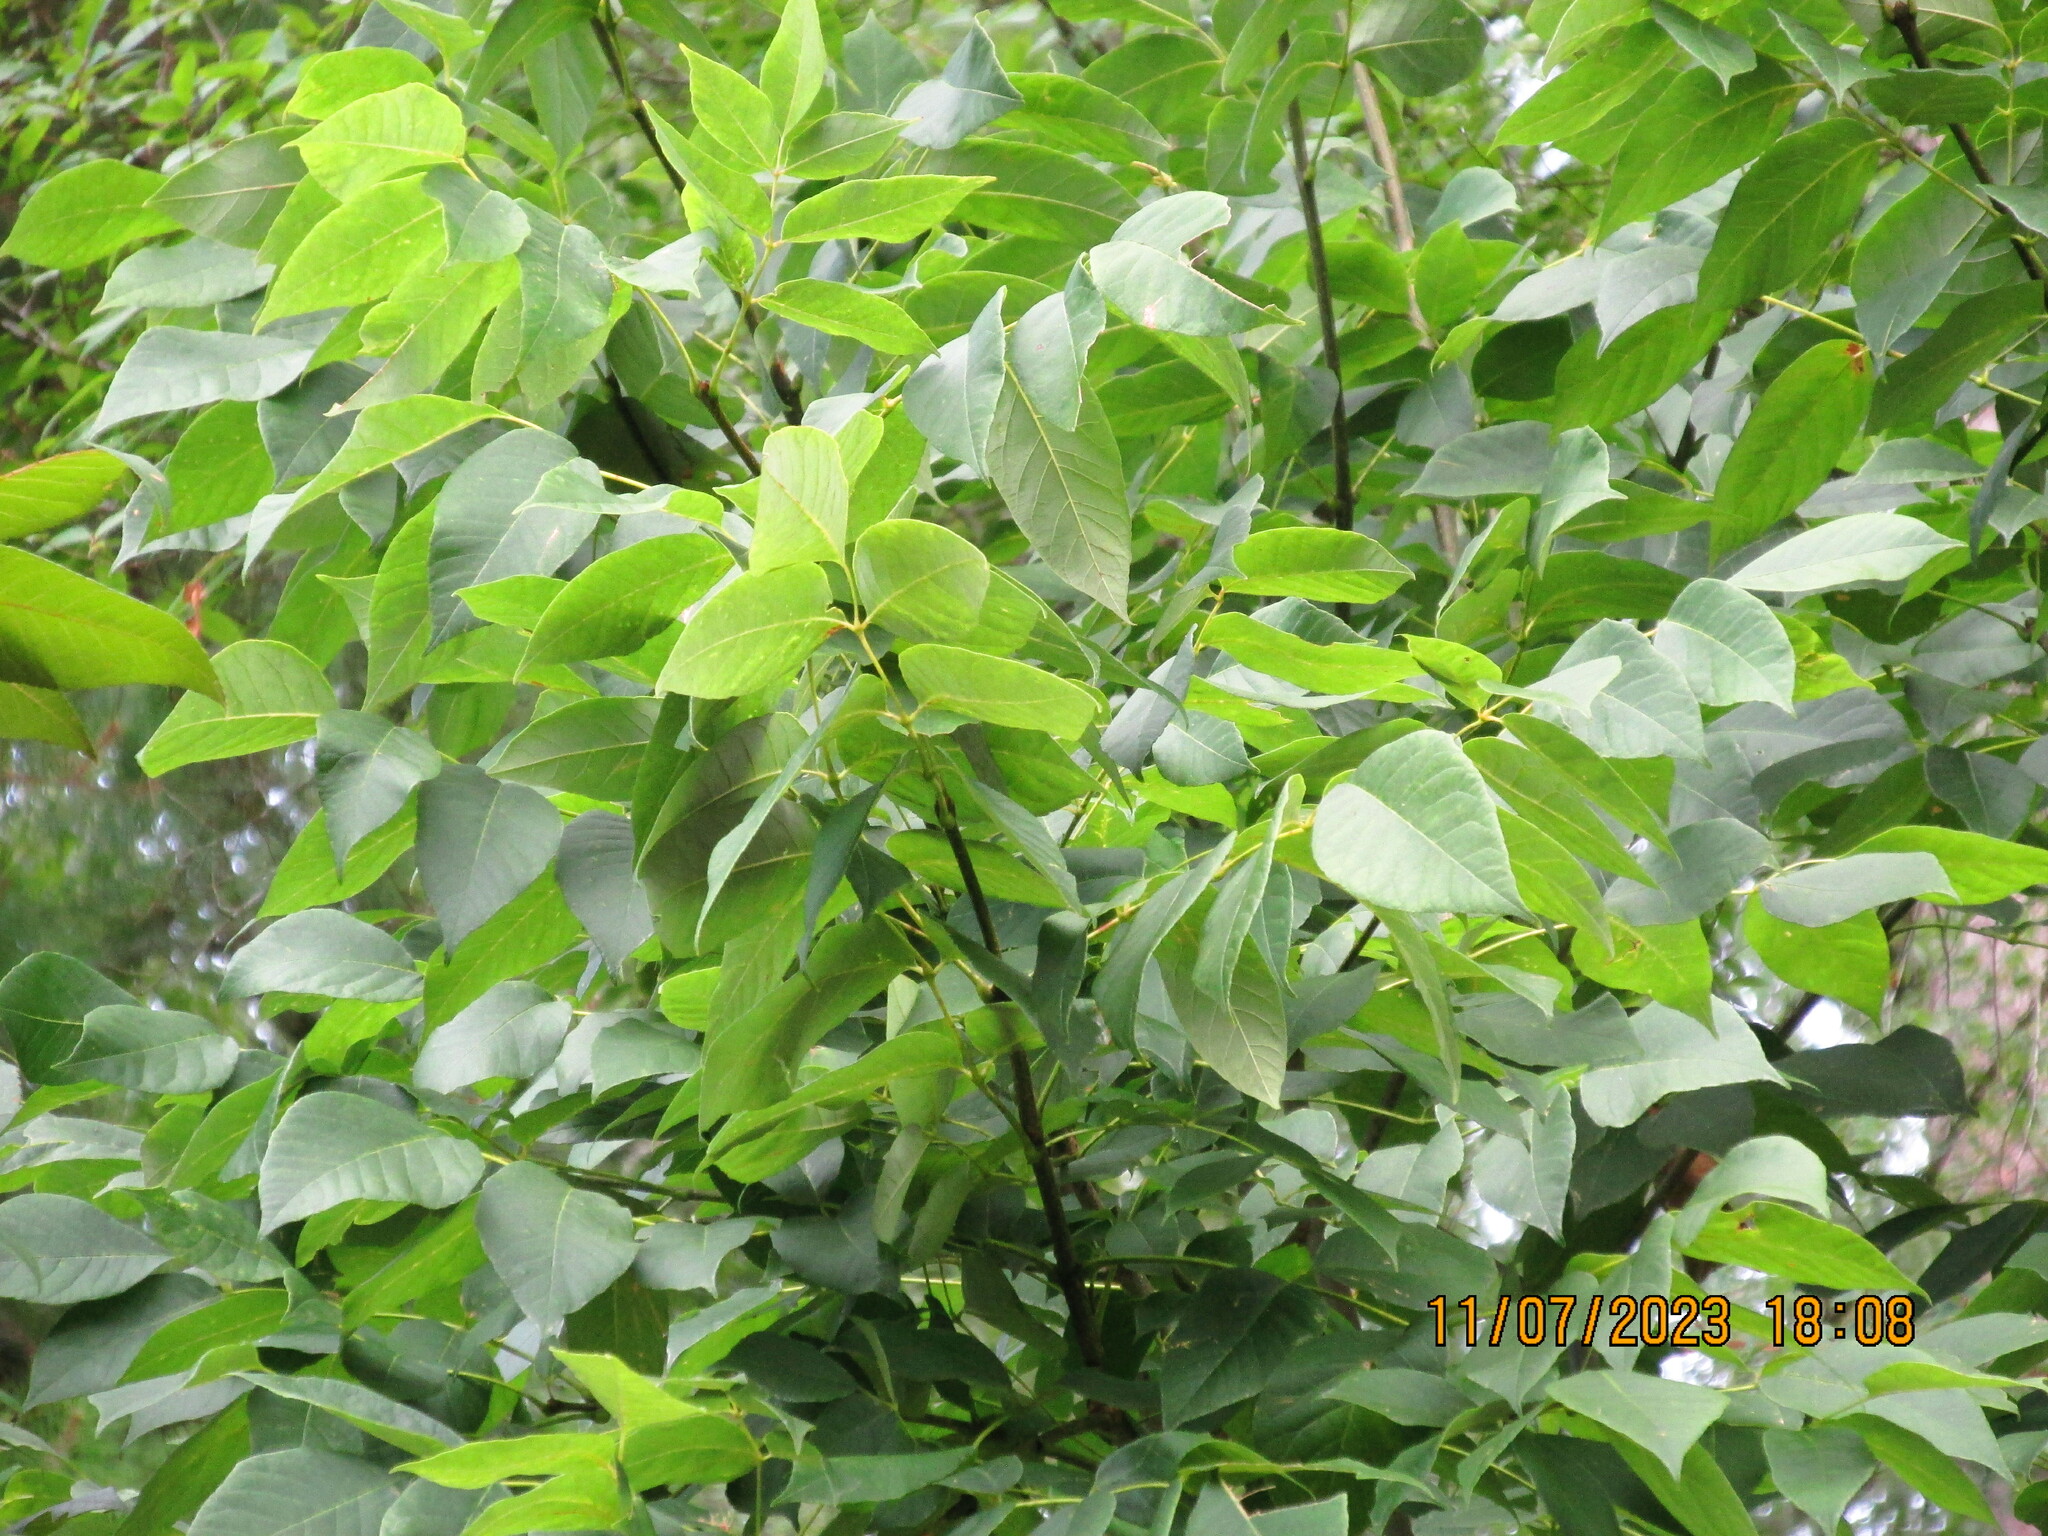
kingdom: Plantae
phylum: Tracheophyta
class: Magnoliopsida
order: Lamiales
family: Oleaceae
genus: Fraxinus
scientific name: Fraxinus americana
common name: White ash
